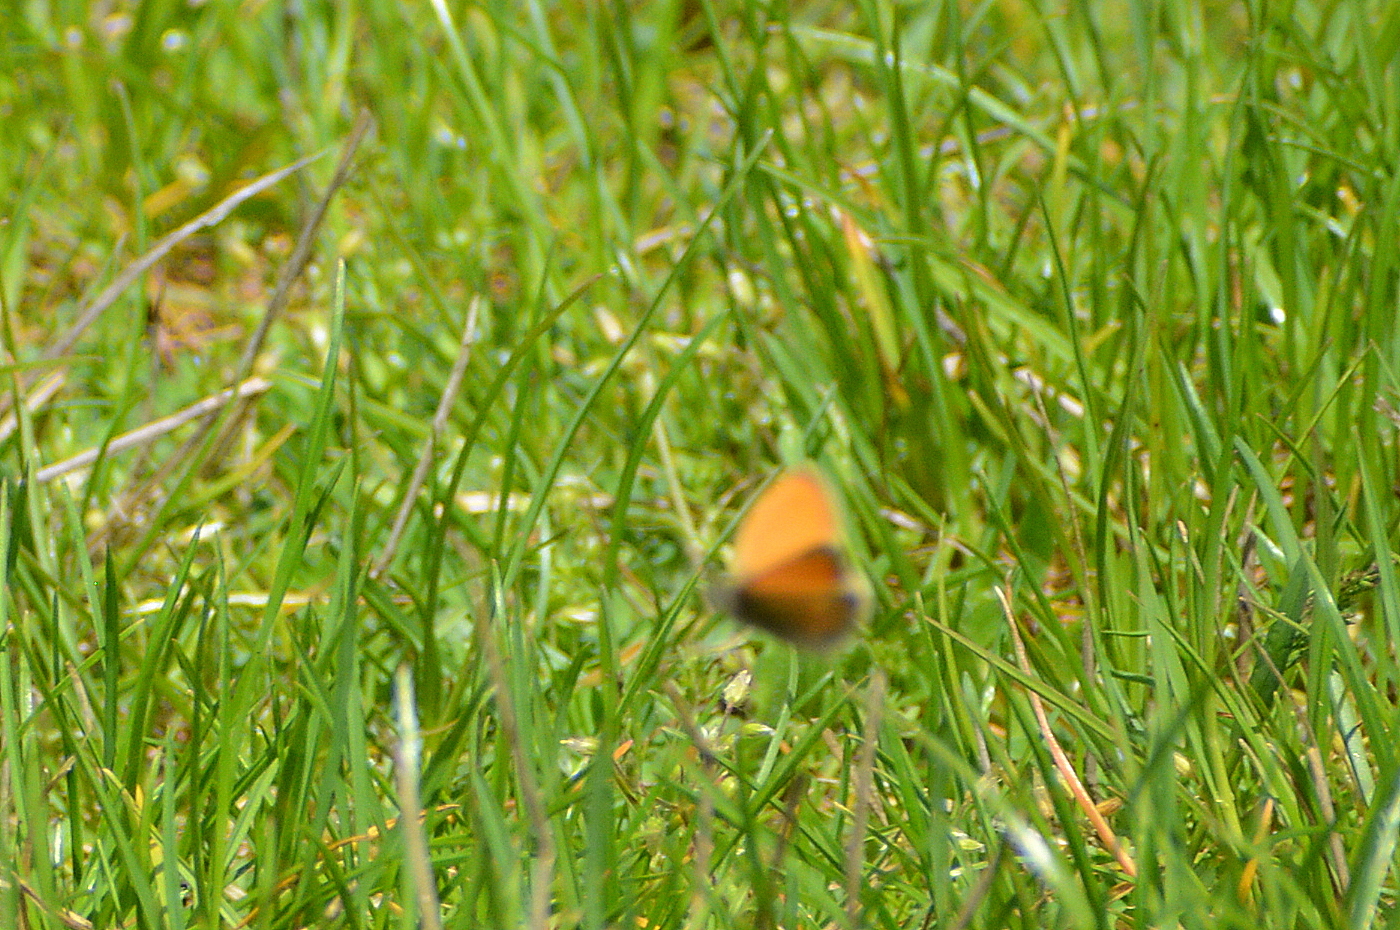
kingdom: Animalia
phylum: Arthropoda
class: Insecta
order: Lepidoptera
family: Nymphalidae
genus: Coenonympha
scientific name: Coenonympha pamphilus
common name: Small heath
